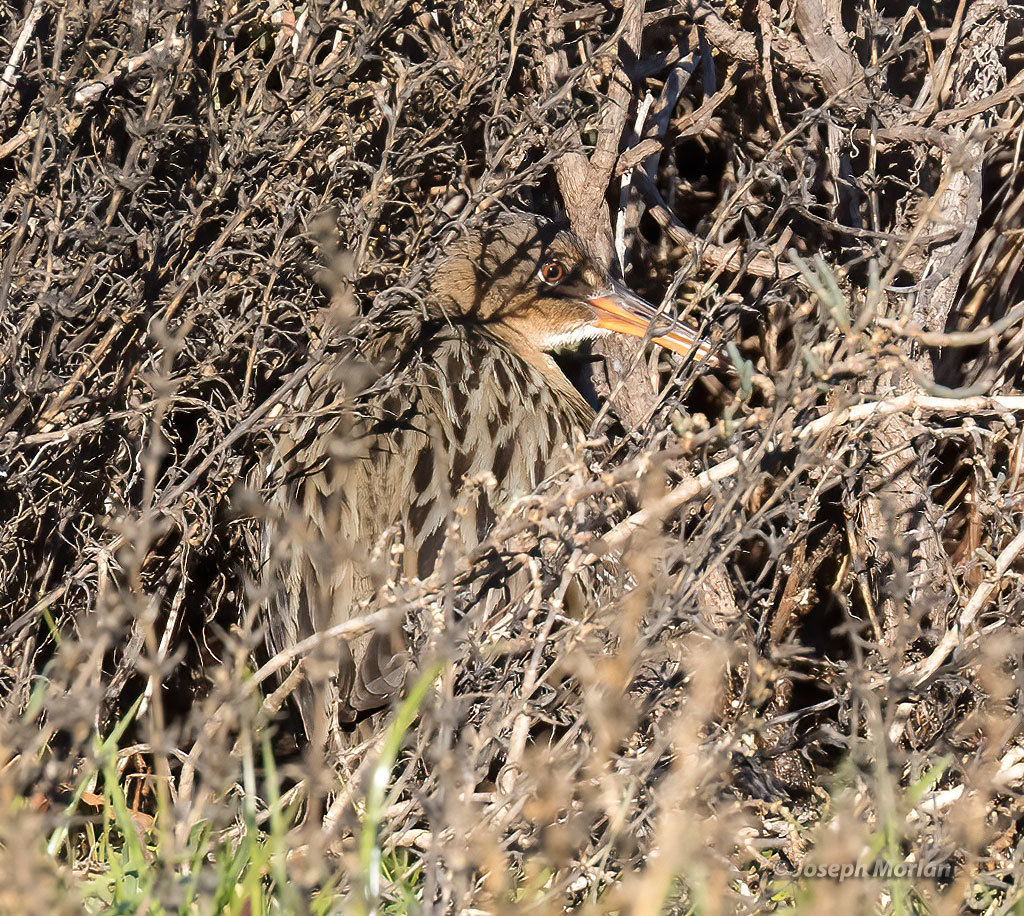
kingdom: Animalia
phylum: Chordata
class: Aves
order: Gruiformes
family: Rallidae
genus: Rallus
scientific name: Rallus obsoletus
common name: Ridgway's rail
